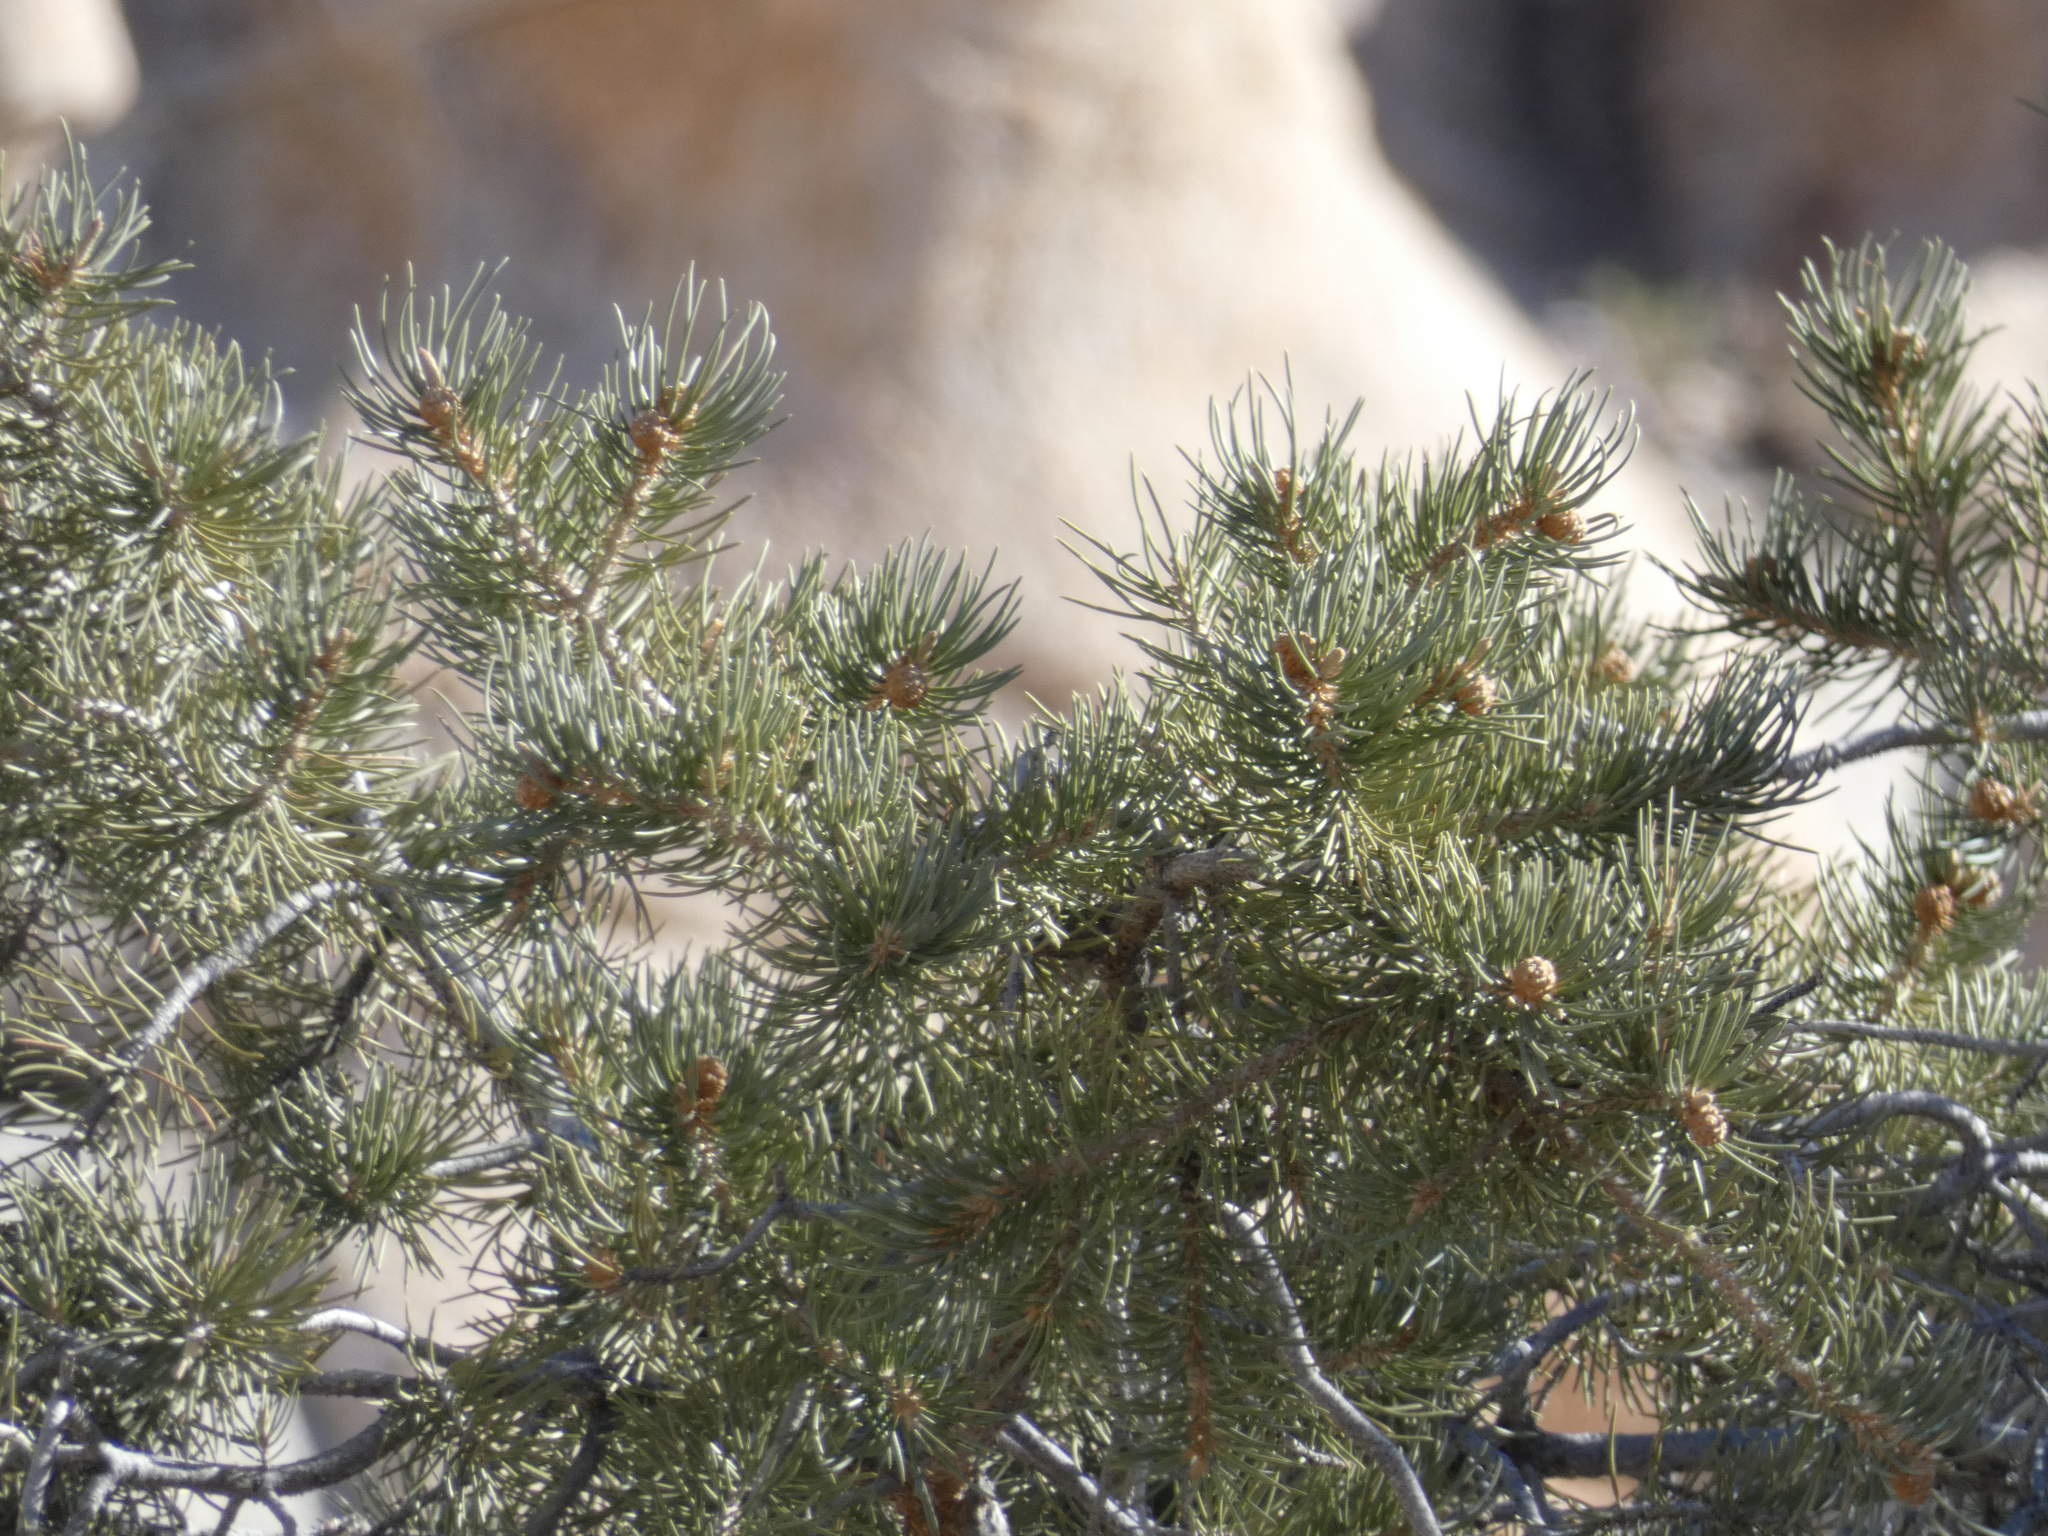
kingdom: Plantae
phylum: Tracheophyta
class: Pinopsida
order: Pinales
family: Pinaceae
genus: Pinus
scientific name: Pinus monophylla
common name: One-leaved nut pine
